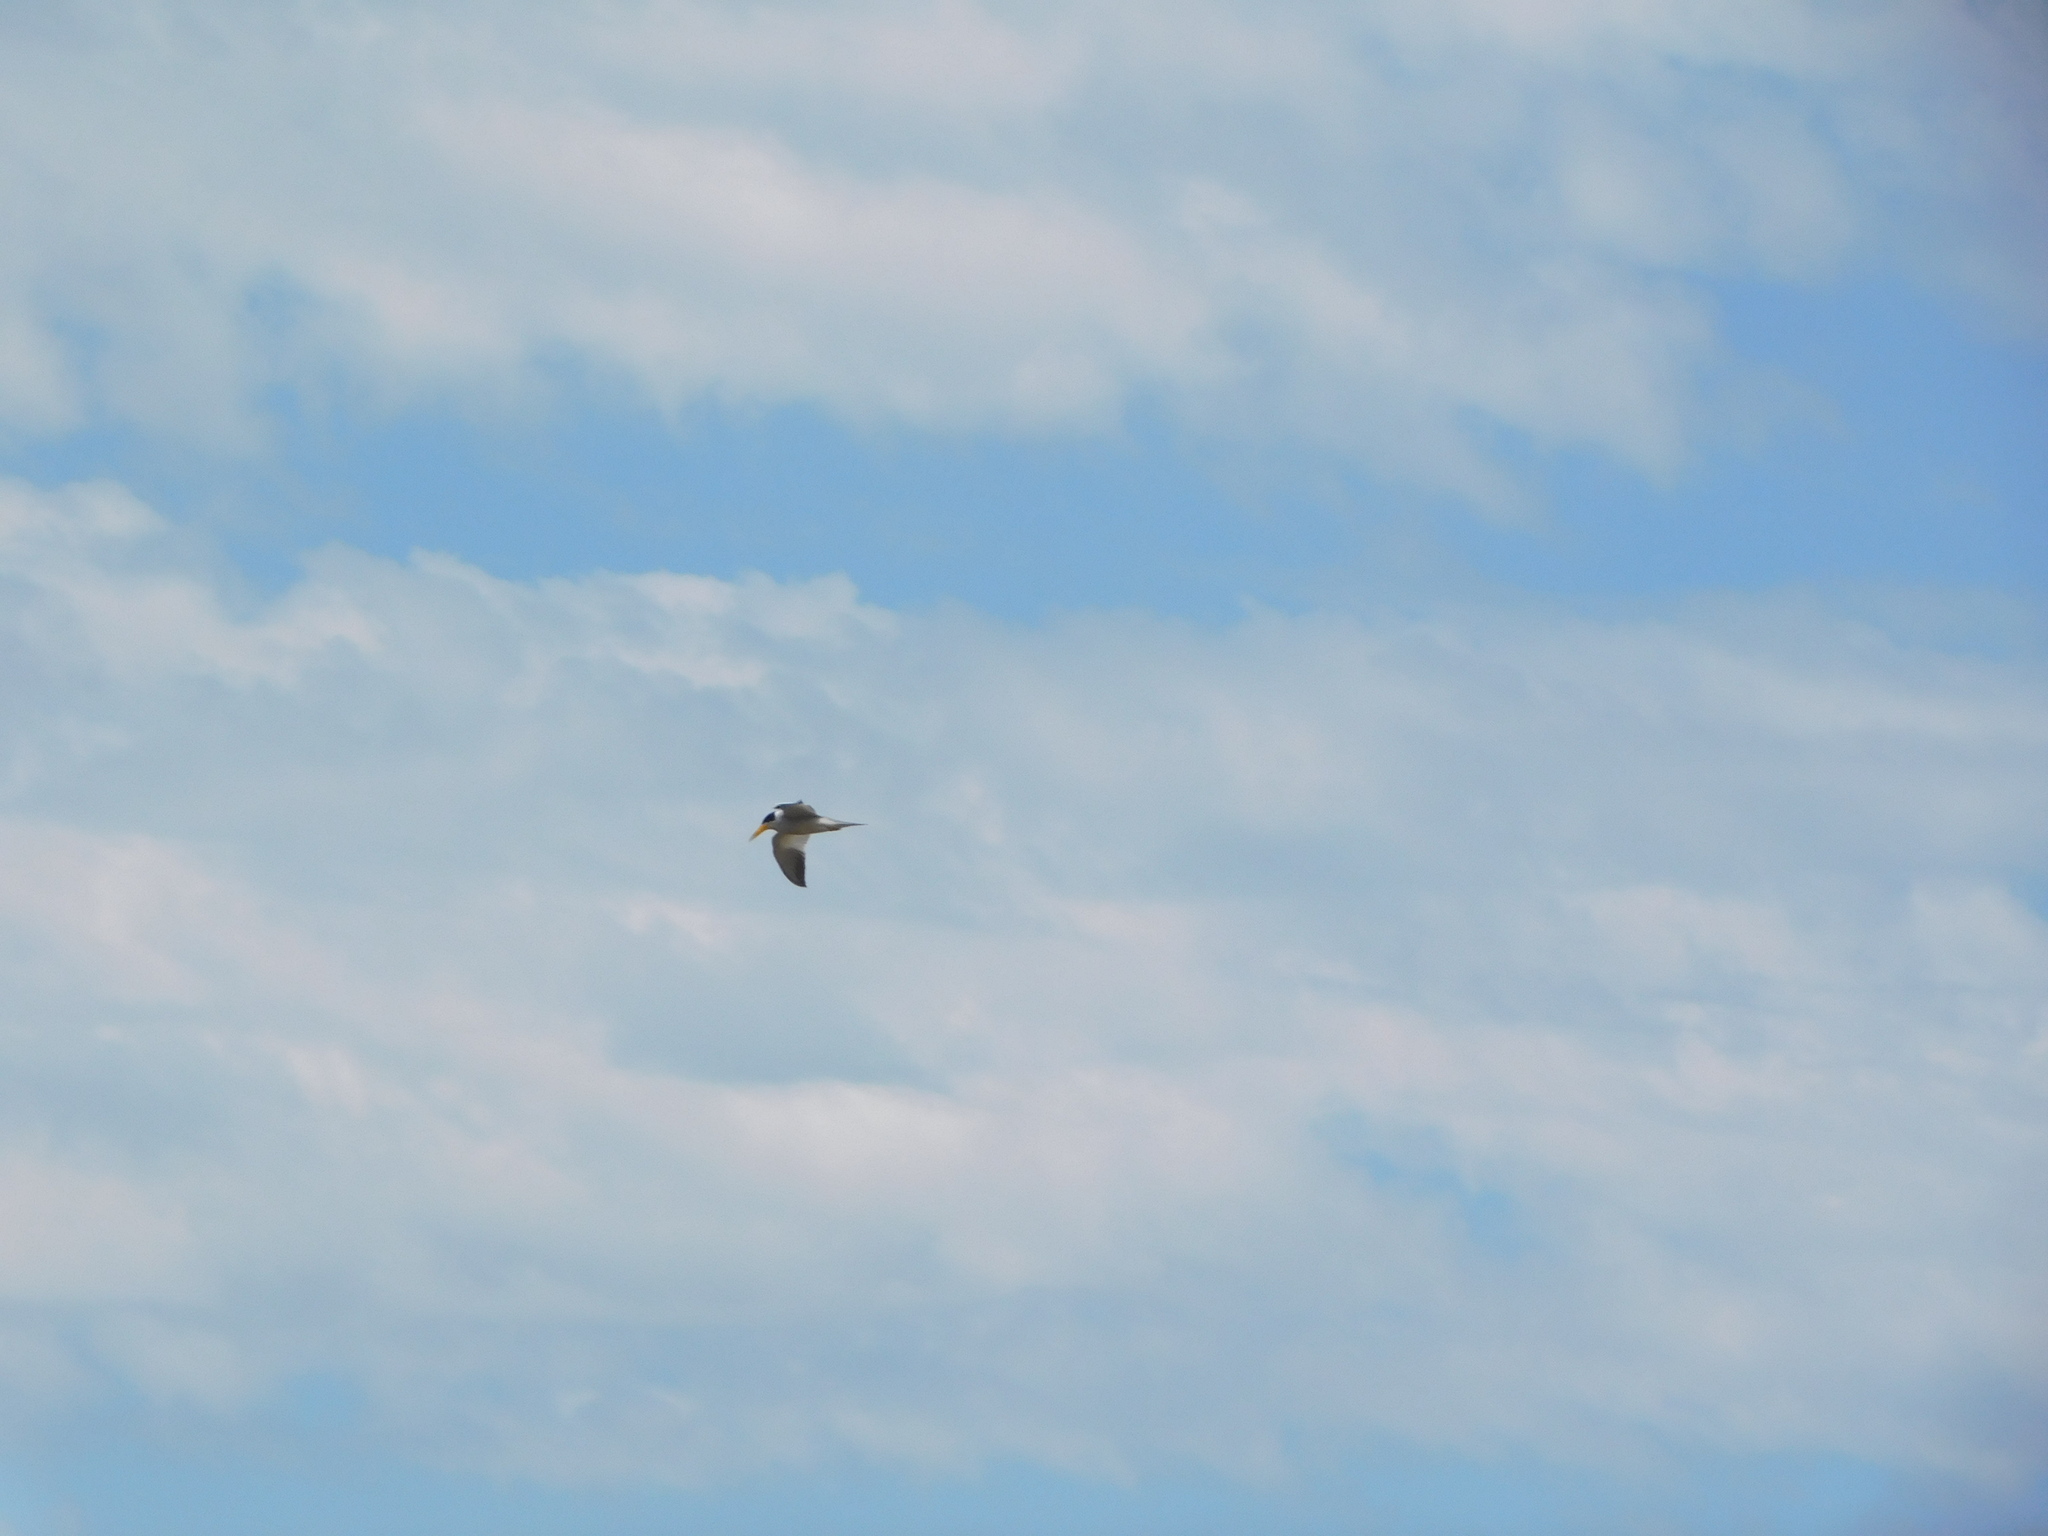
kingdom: Animalia
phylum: Chordata
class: Aves
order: Charadriiformes
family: Laridae
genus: Phaetusa
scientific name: Phaetusa simplex
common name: Large-billed tern
